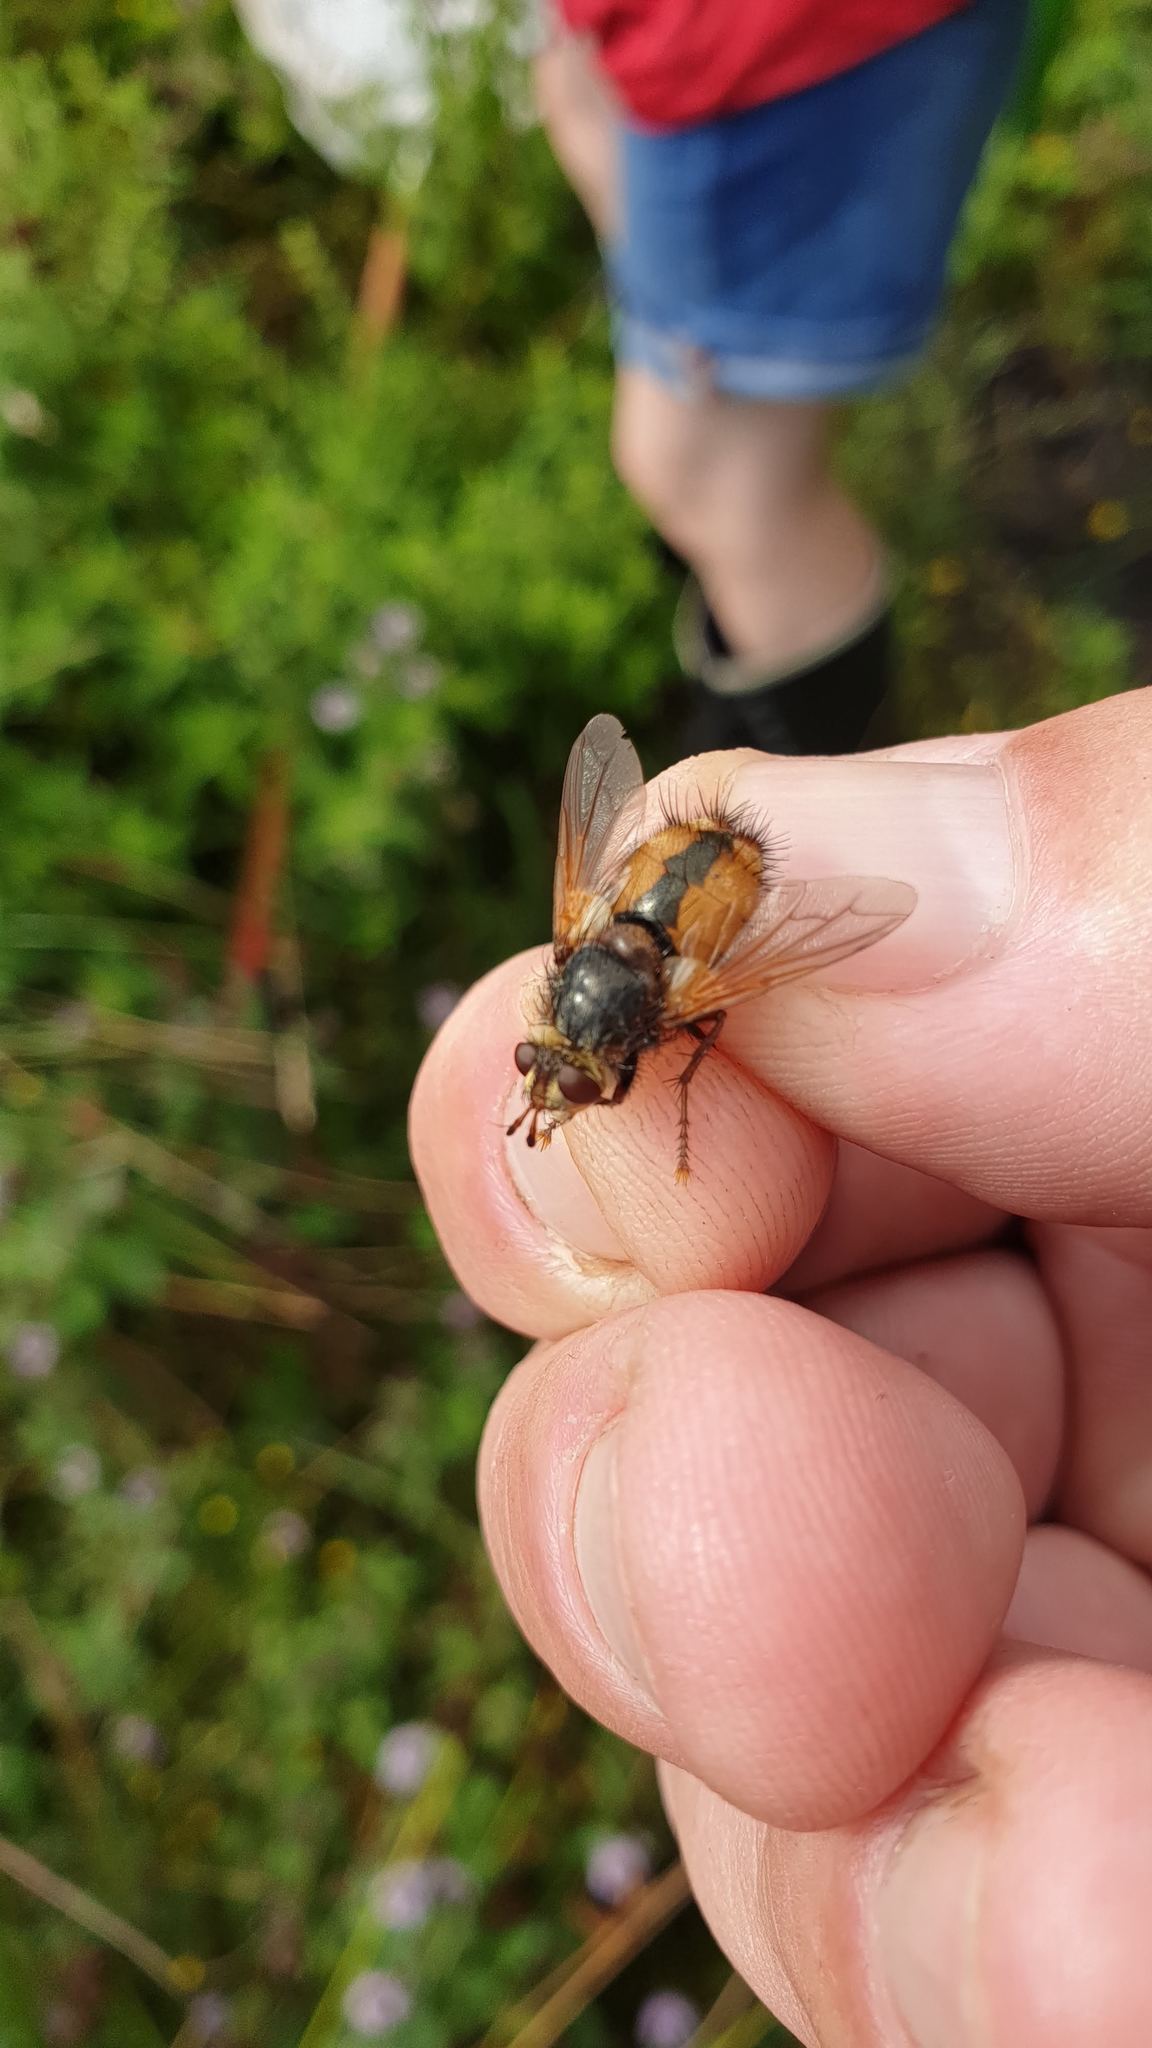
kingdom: Animalia
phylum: Arthropoda
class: Insecta
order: Diptera
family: Tachinidae
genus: Tachina
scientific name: Tachina fera
